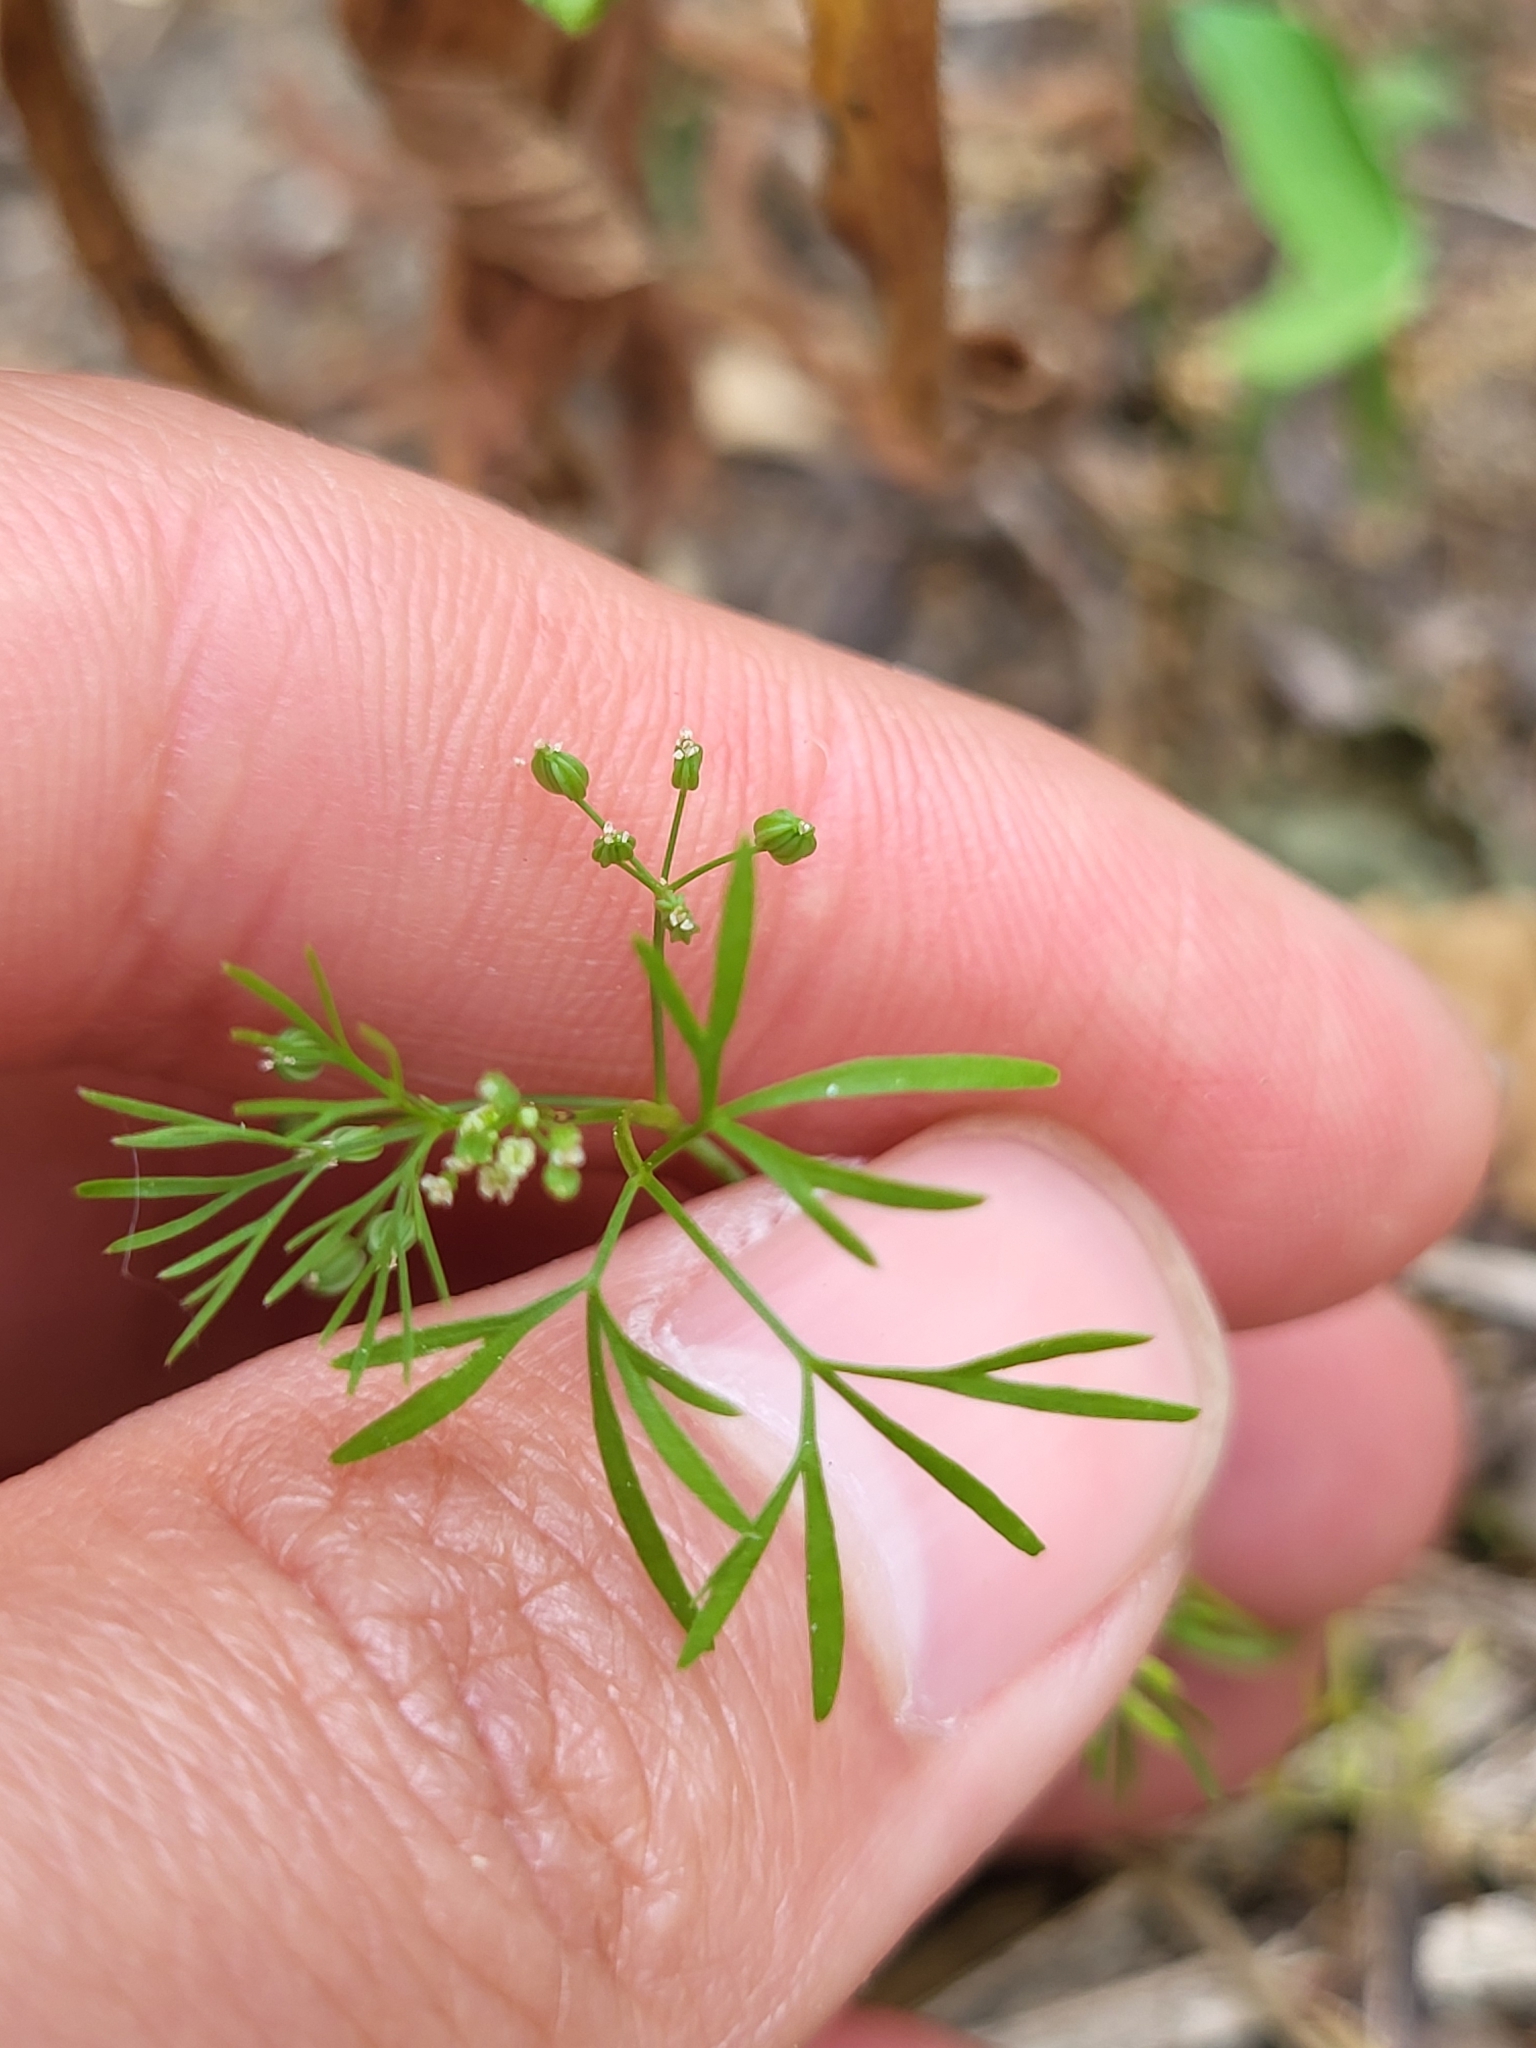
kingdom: Plantae
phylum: Tracheophyta
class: Magnoliopsida
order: Apiales
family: Apiaceae
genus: Cyclospermum
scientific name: Cyclospermum leptophyllum
